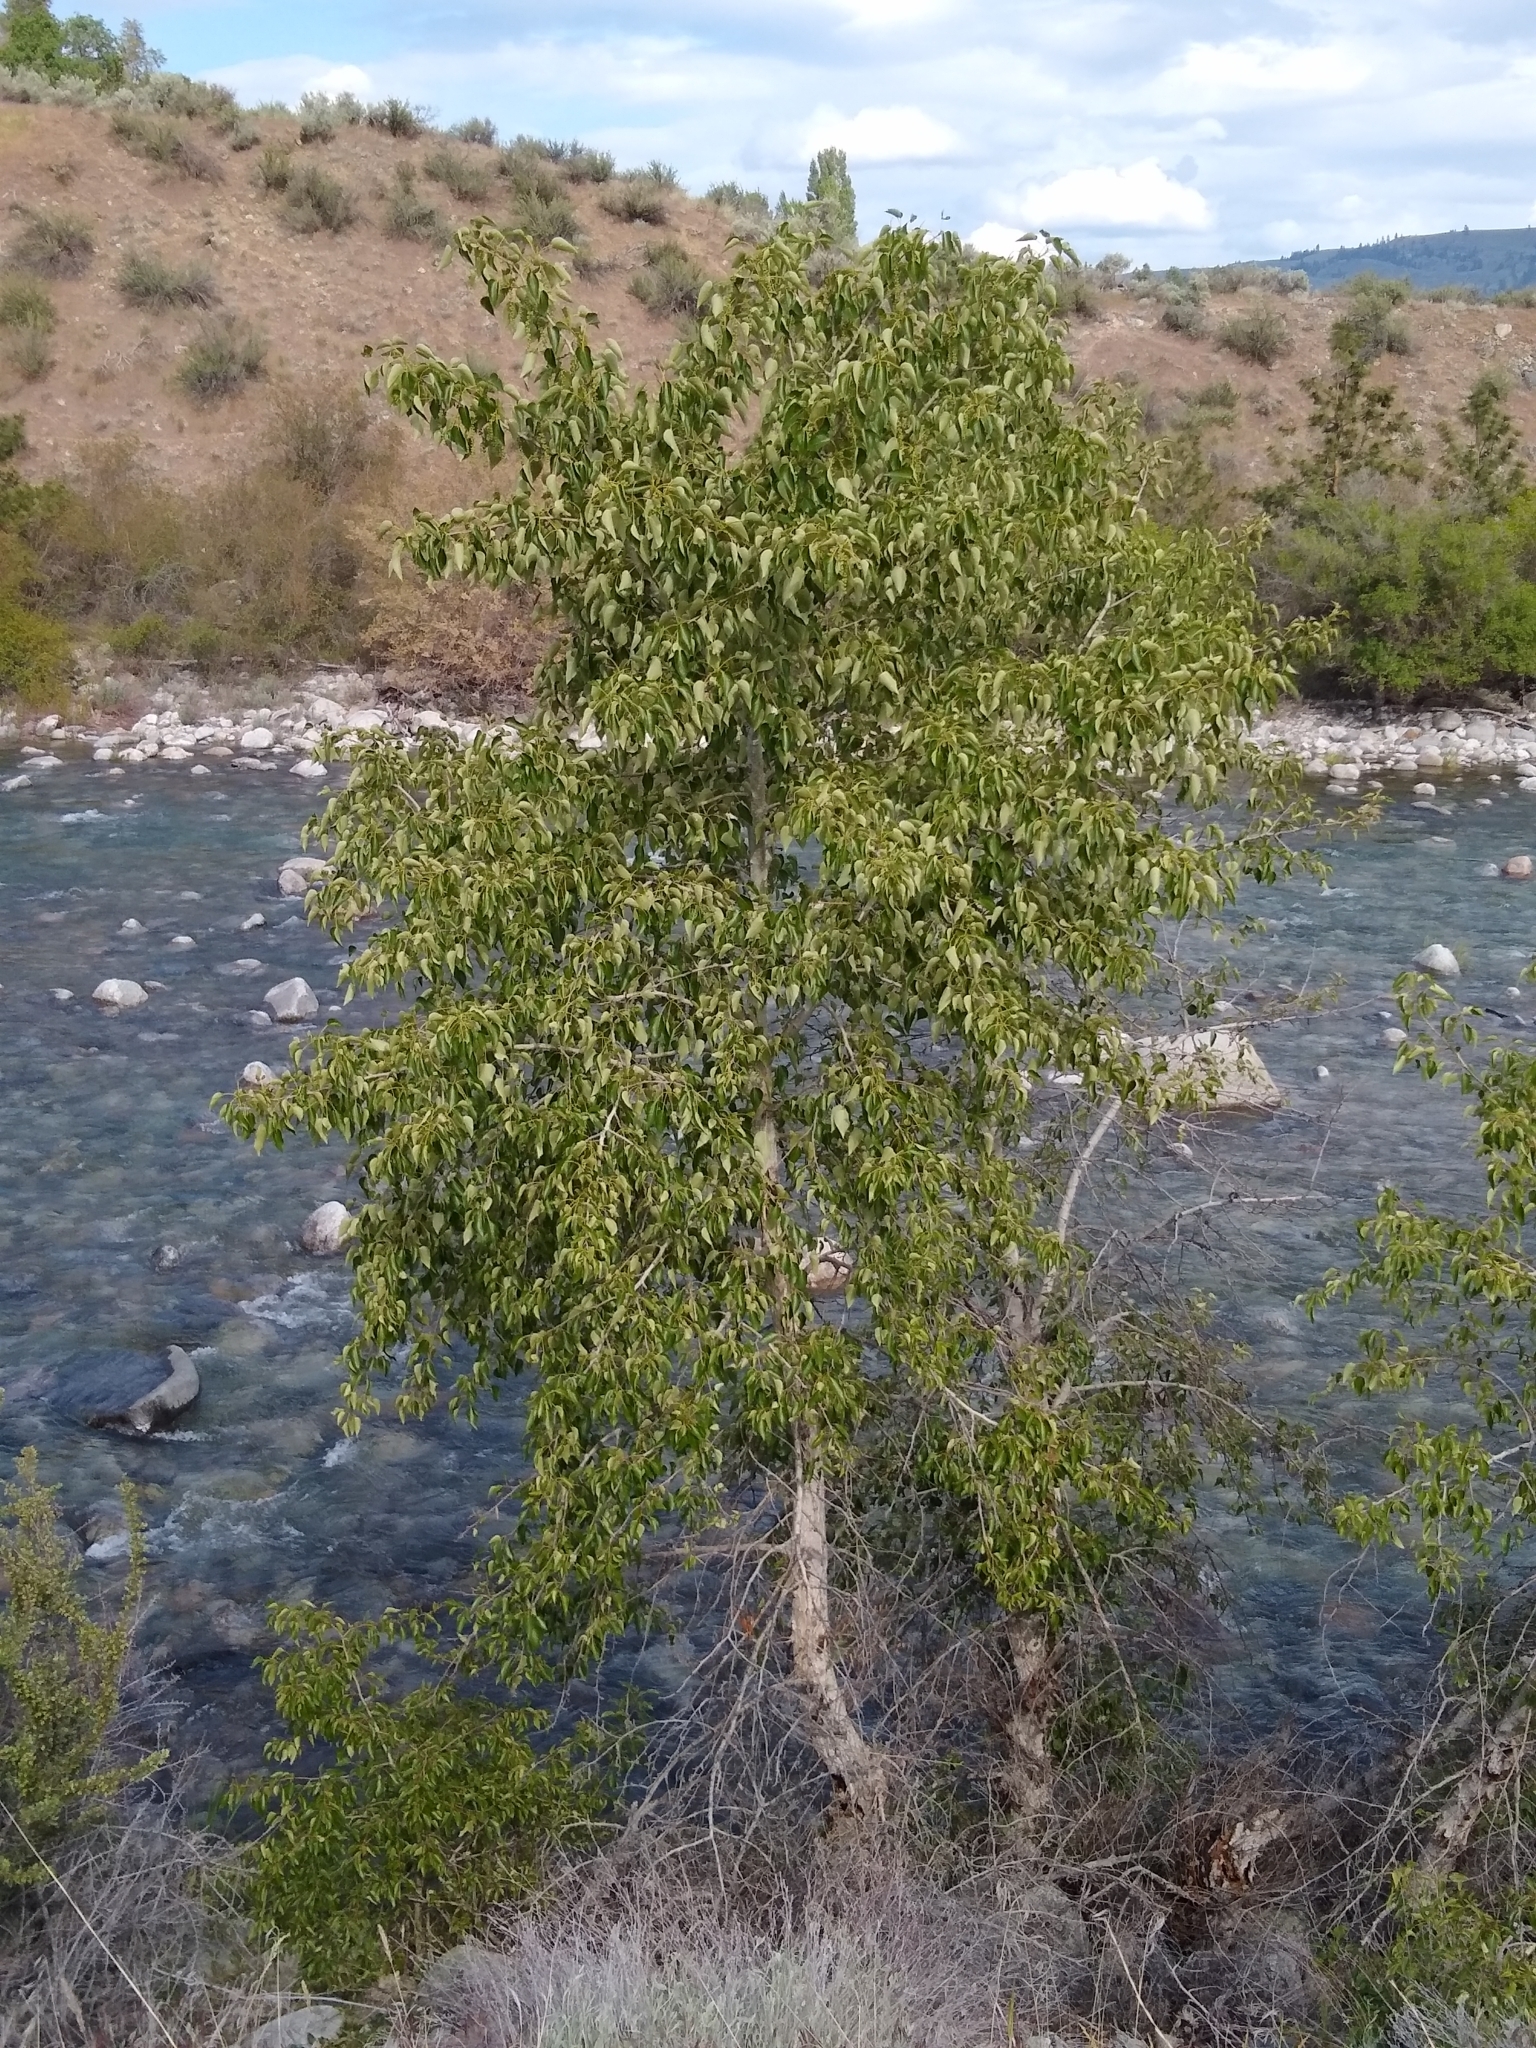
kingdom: Plantae
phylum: Tracheophyta
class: Magnoliopsida
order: Malpighiales
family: Salicaceae
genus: Populus
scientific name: Populus trichocarpa
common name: Black cottonwood
